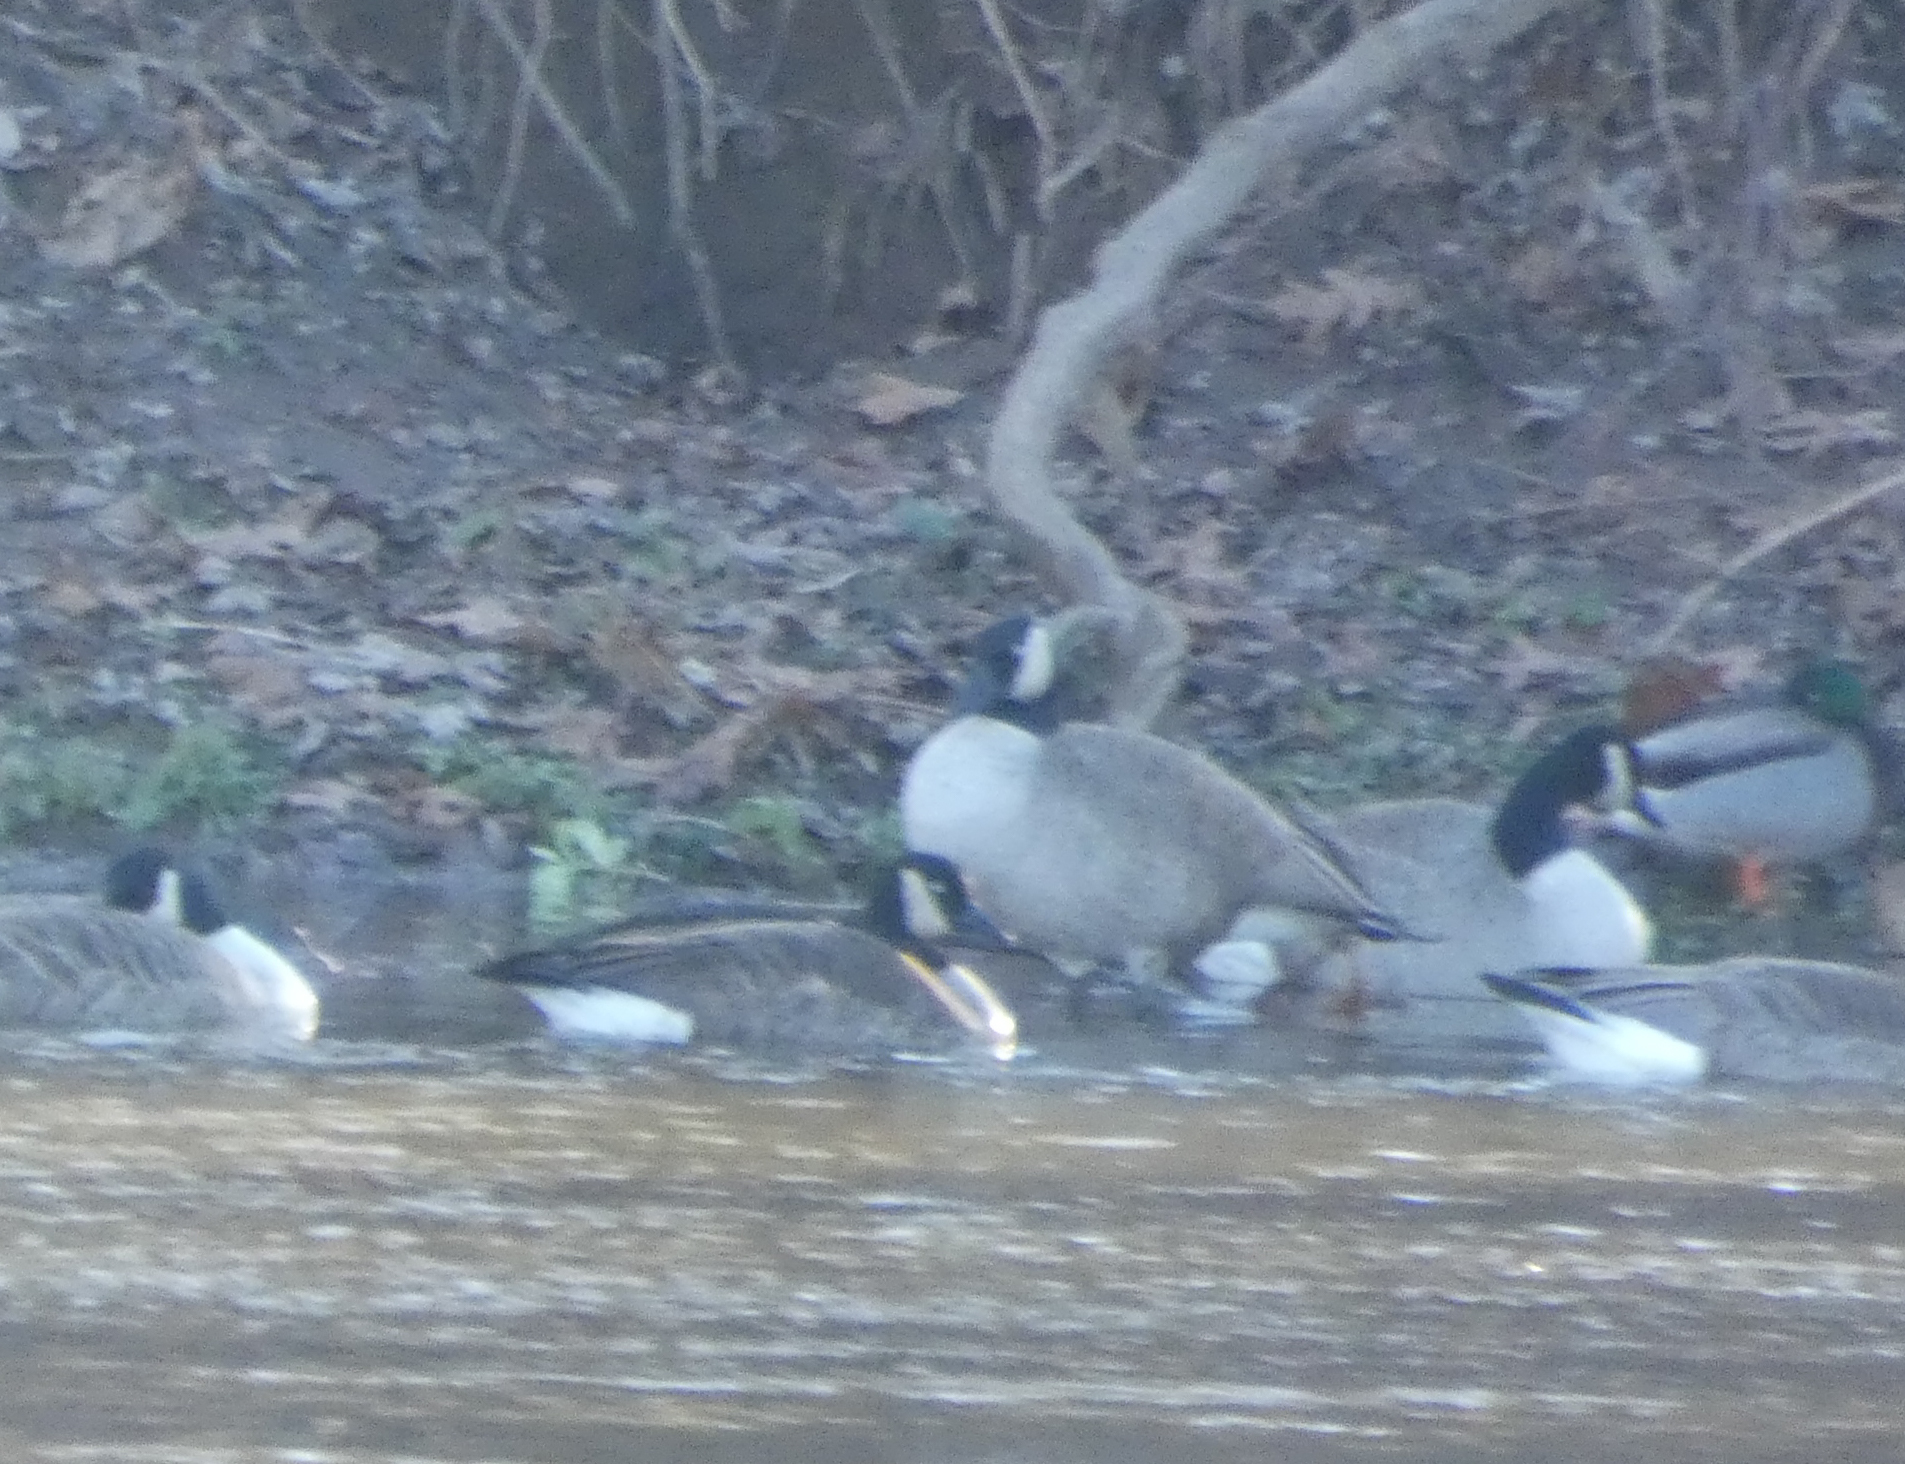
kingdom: Animalia
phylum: Chordata
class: Aves
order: Anseriformes
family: Anatidae
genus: Branta
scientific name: Branta canadensis
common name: Canada goose
